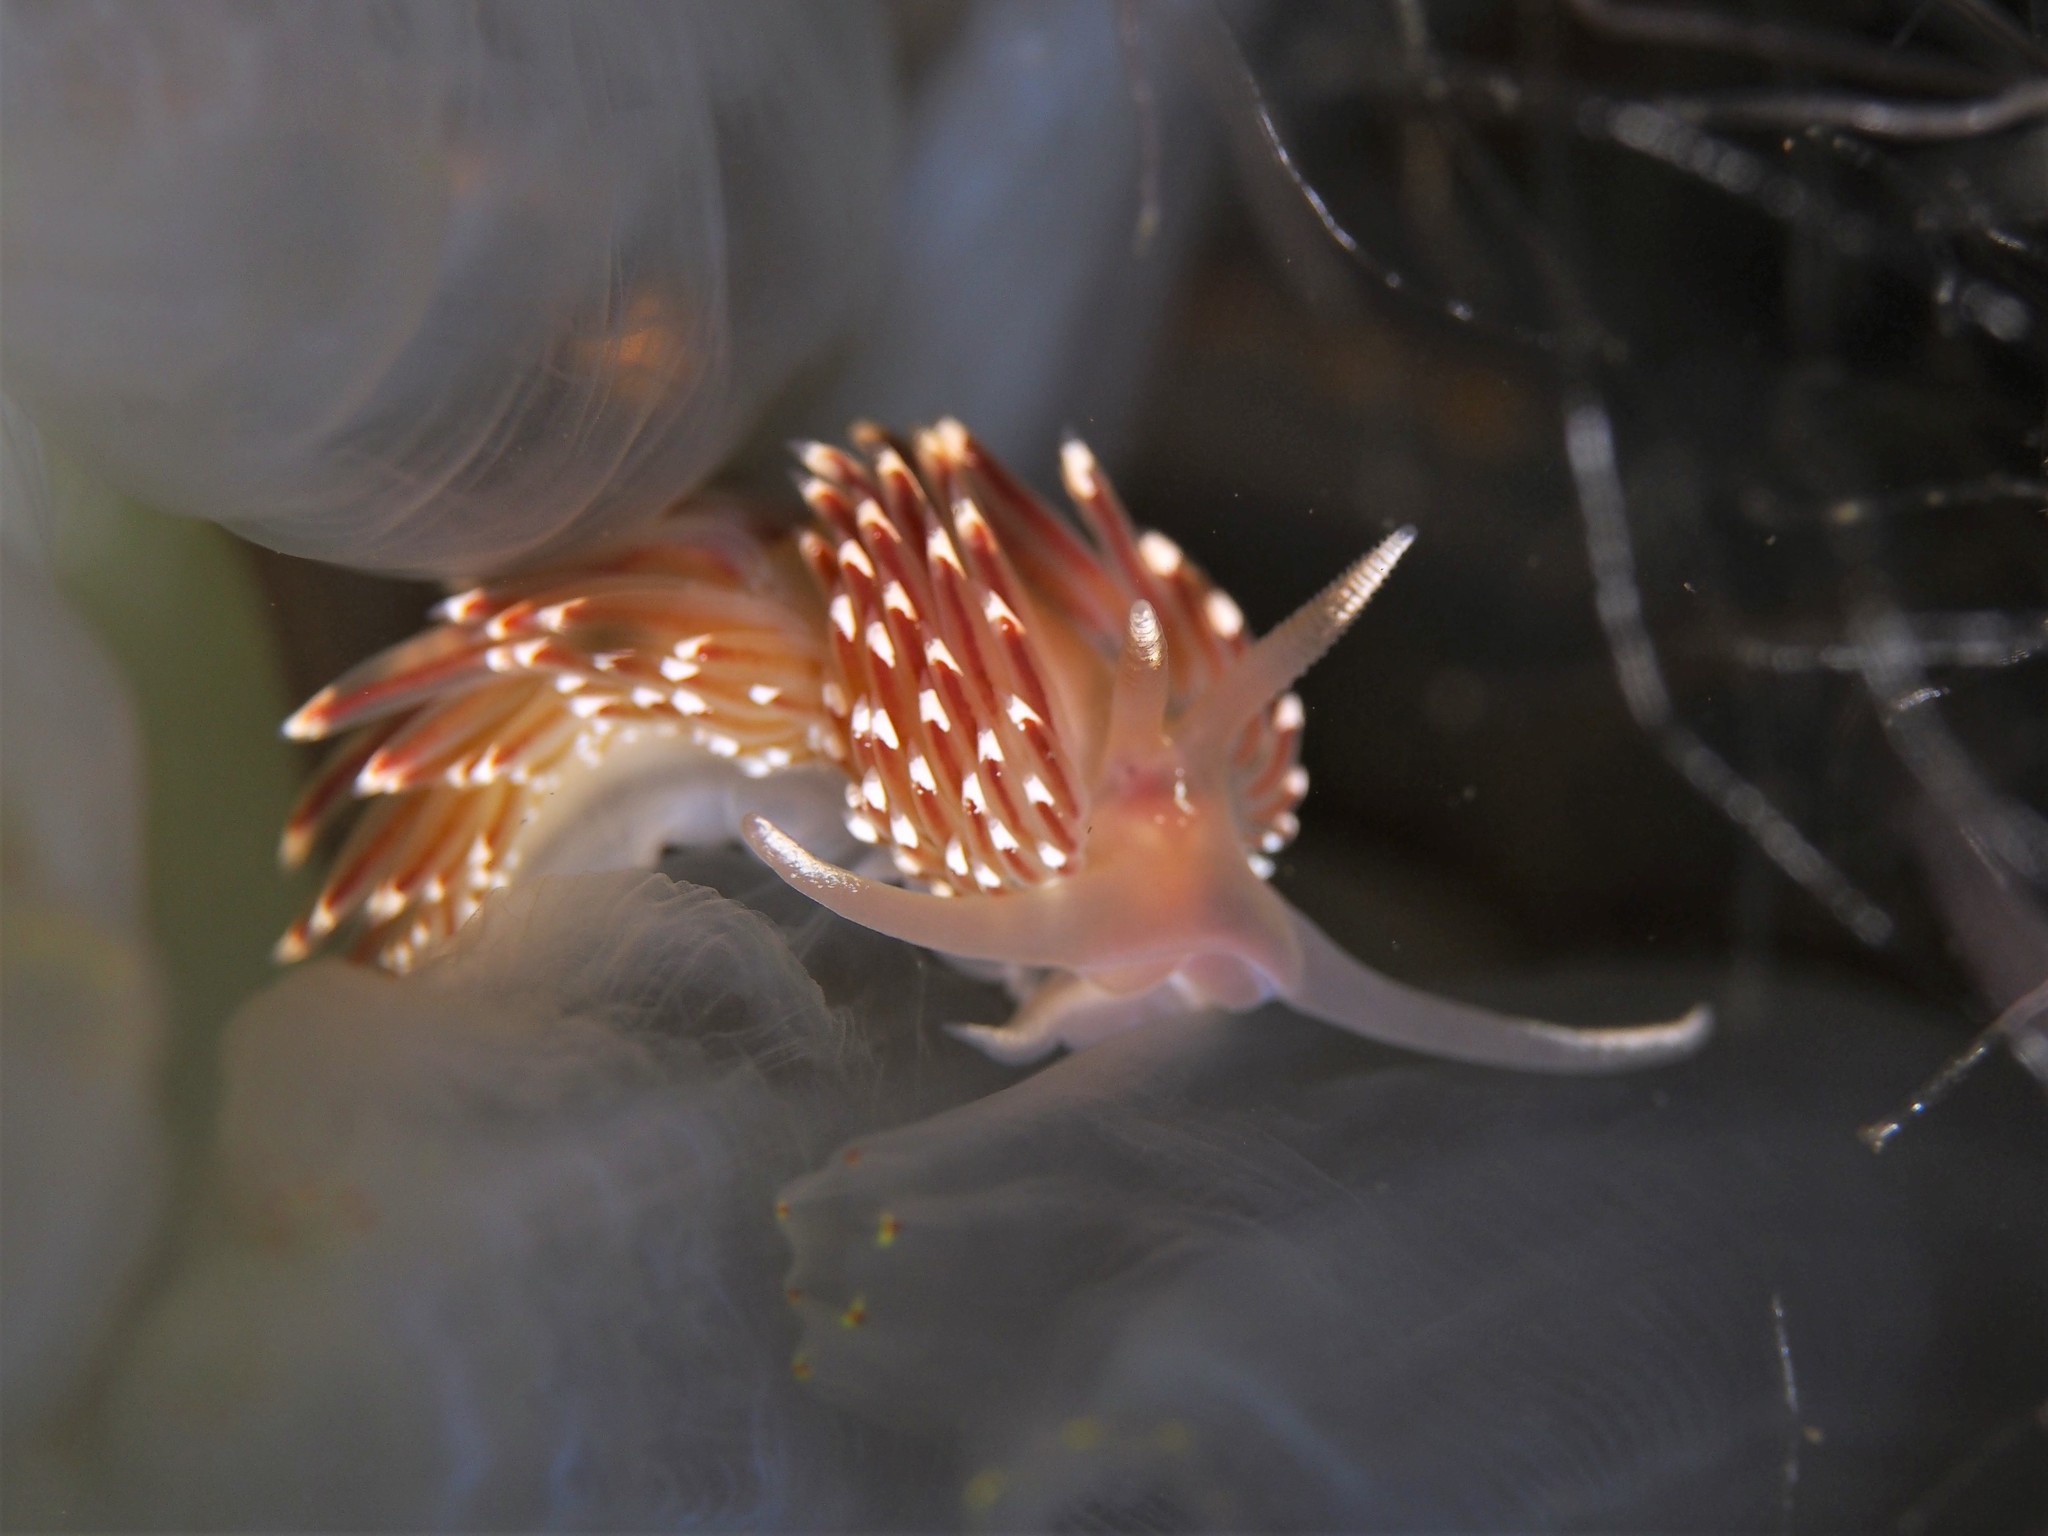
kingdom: Animalia
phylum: Mollusca
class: Gastropoda
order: Nudibranchia
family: Facelinidae
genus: Facelina
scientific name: Facelina bostoniensis
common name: Boston facelina
